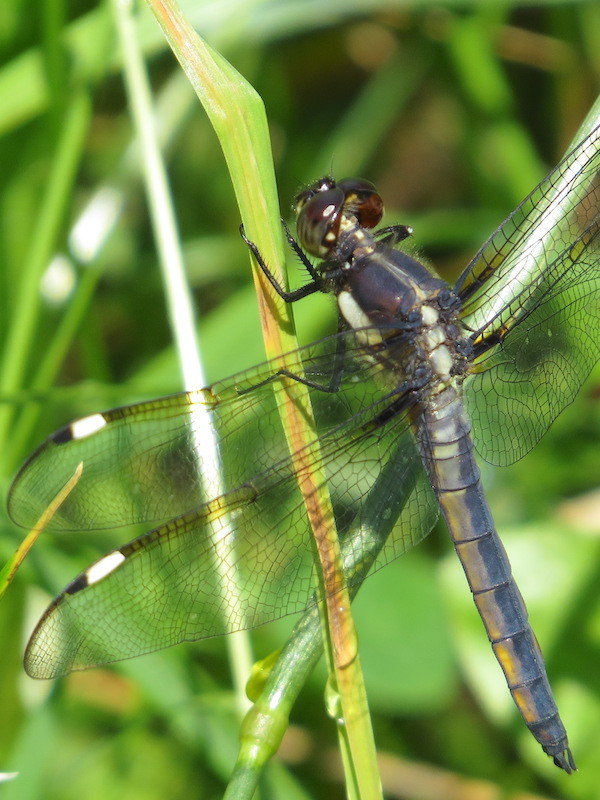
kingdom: Animalia
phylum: Arthropoda
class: Insecta
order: Odonata
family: Libellulidae
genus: Libellula
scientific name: Libellula cyanea
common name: Spangled skimmer
